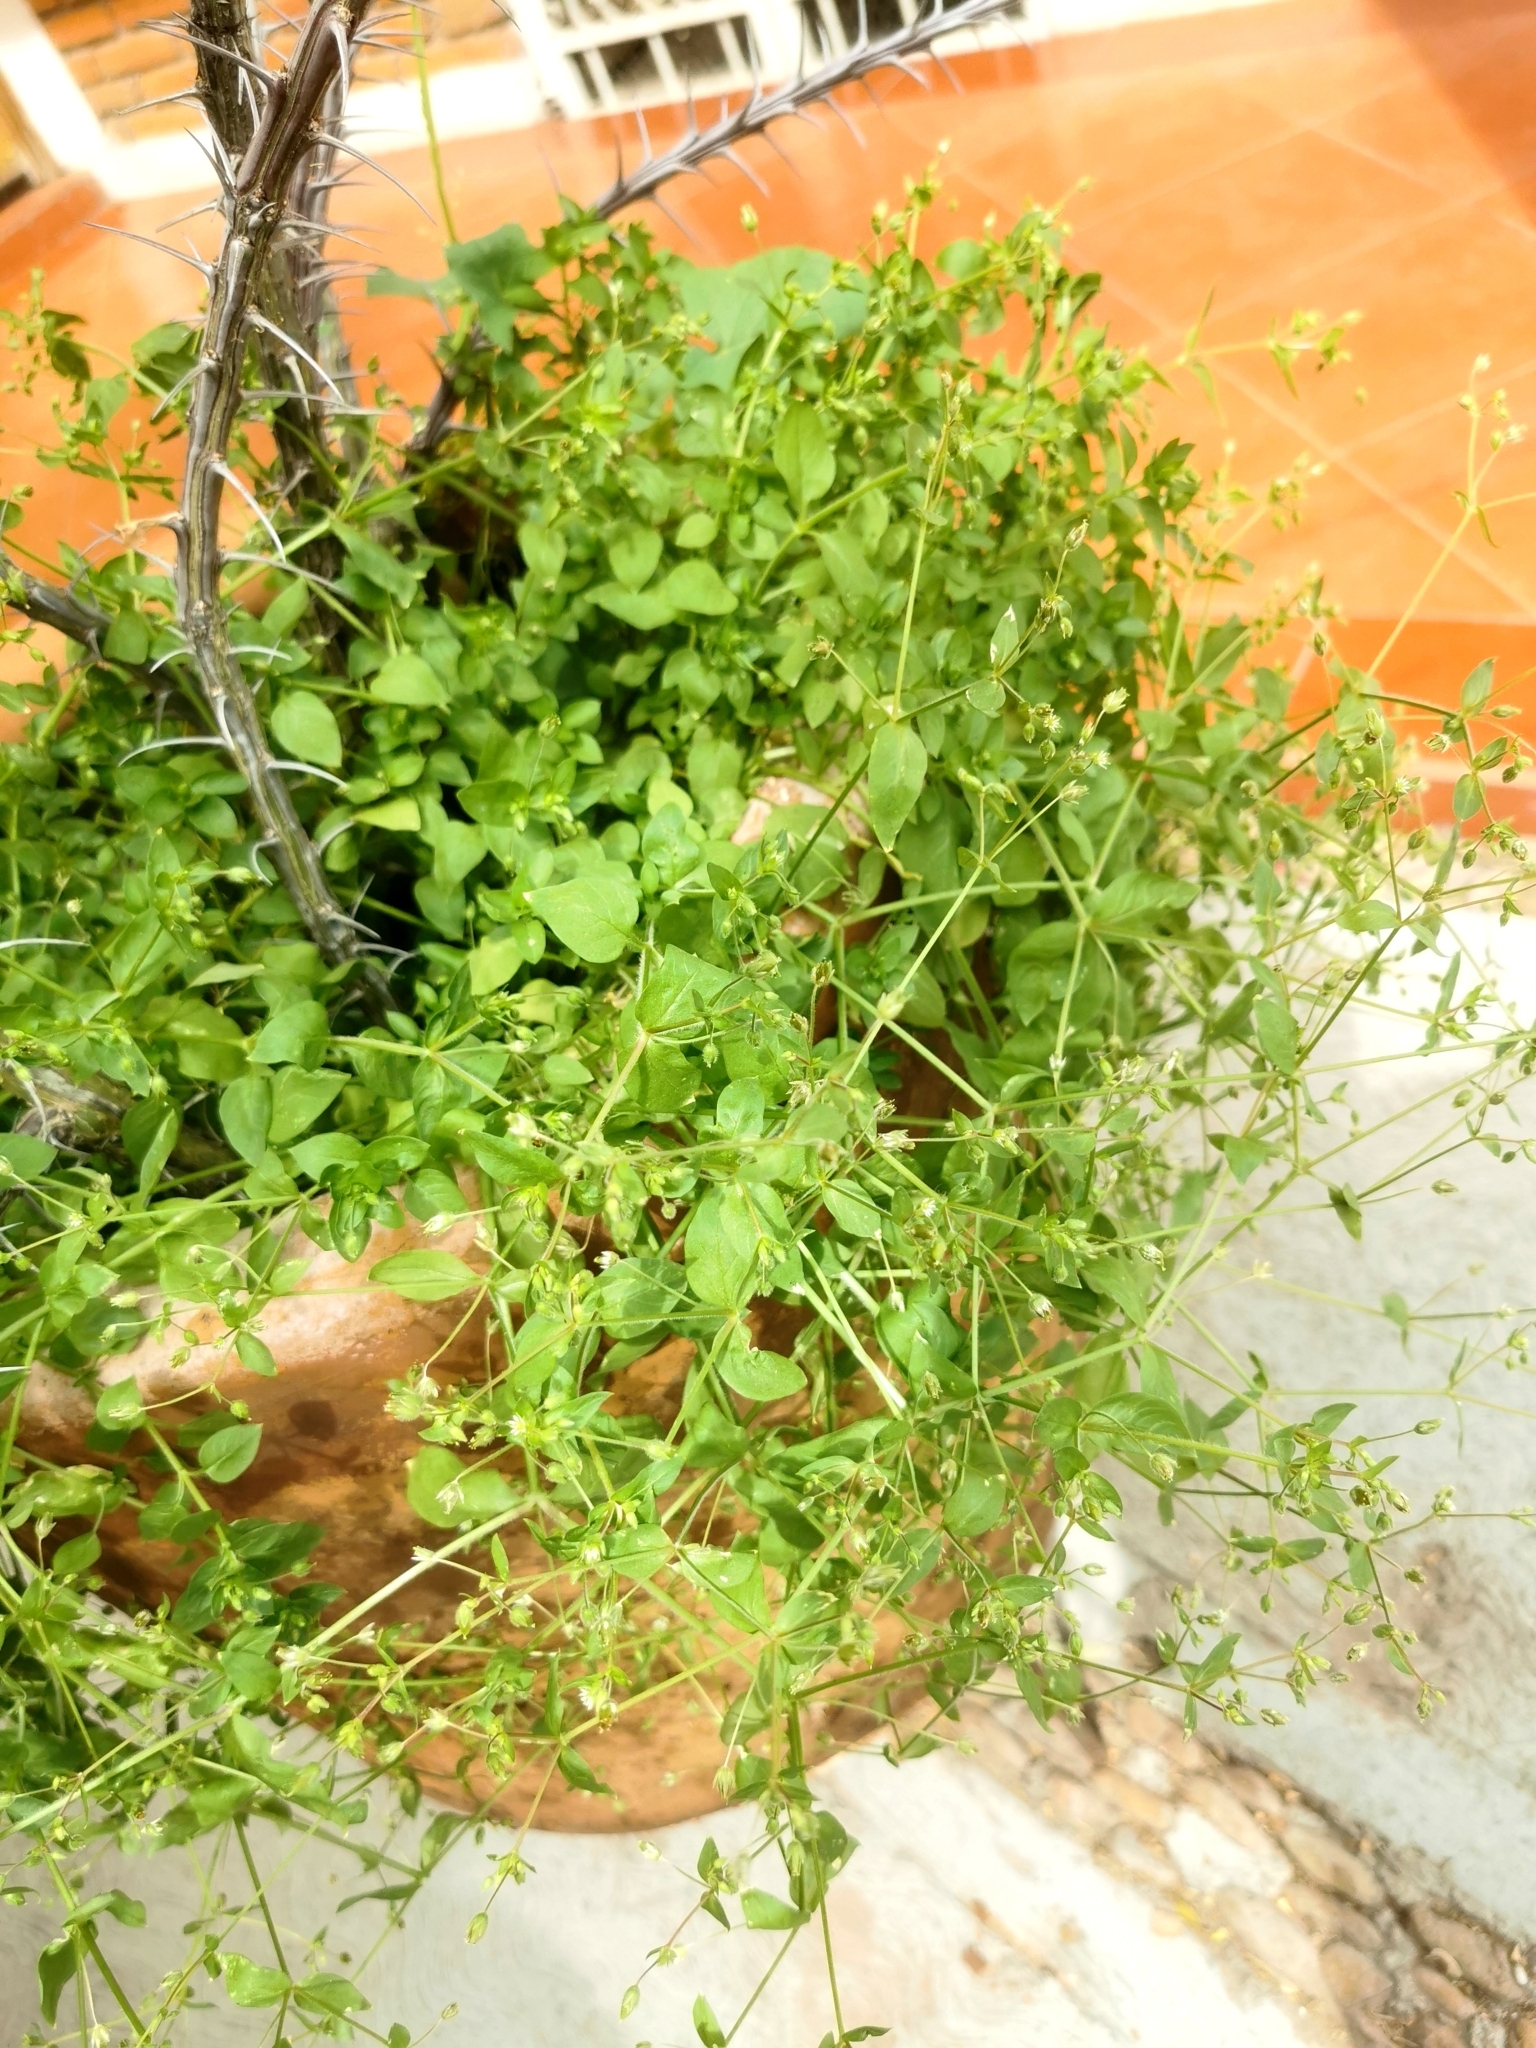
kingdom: Plantae
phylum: Tracheophyta
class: Magnoliopsida
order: Caryophyllales
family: Caryophyllaceae
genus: Stellaria
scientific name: Stellaria cuspidata
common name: Mexican chickweed
